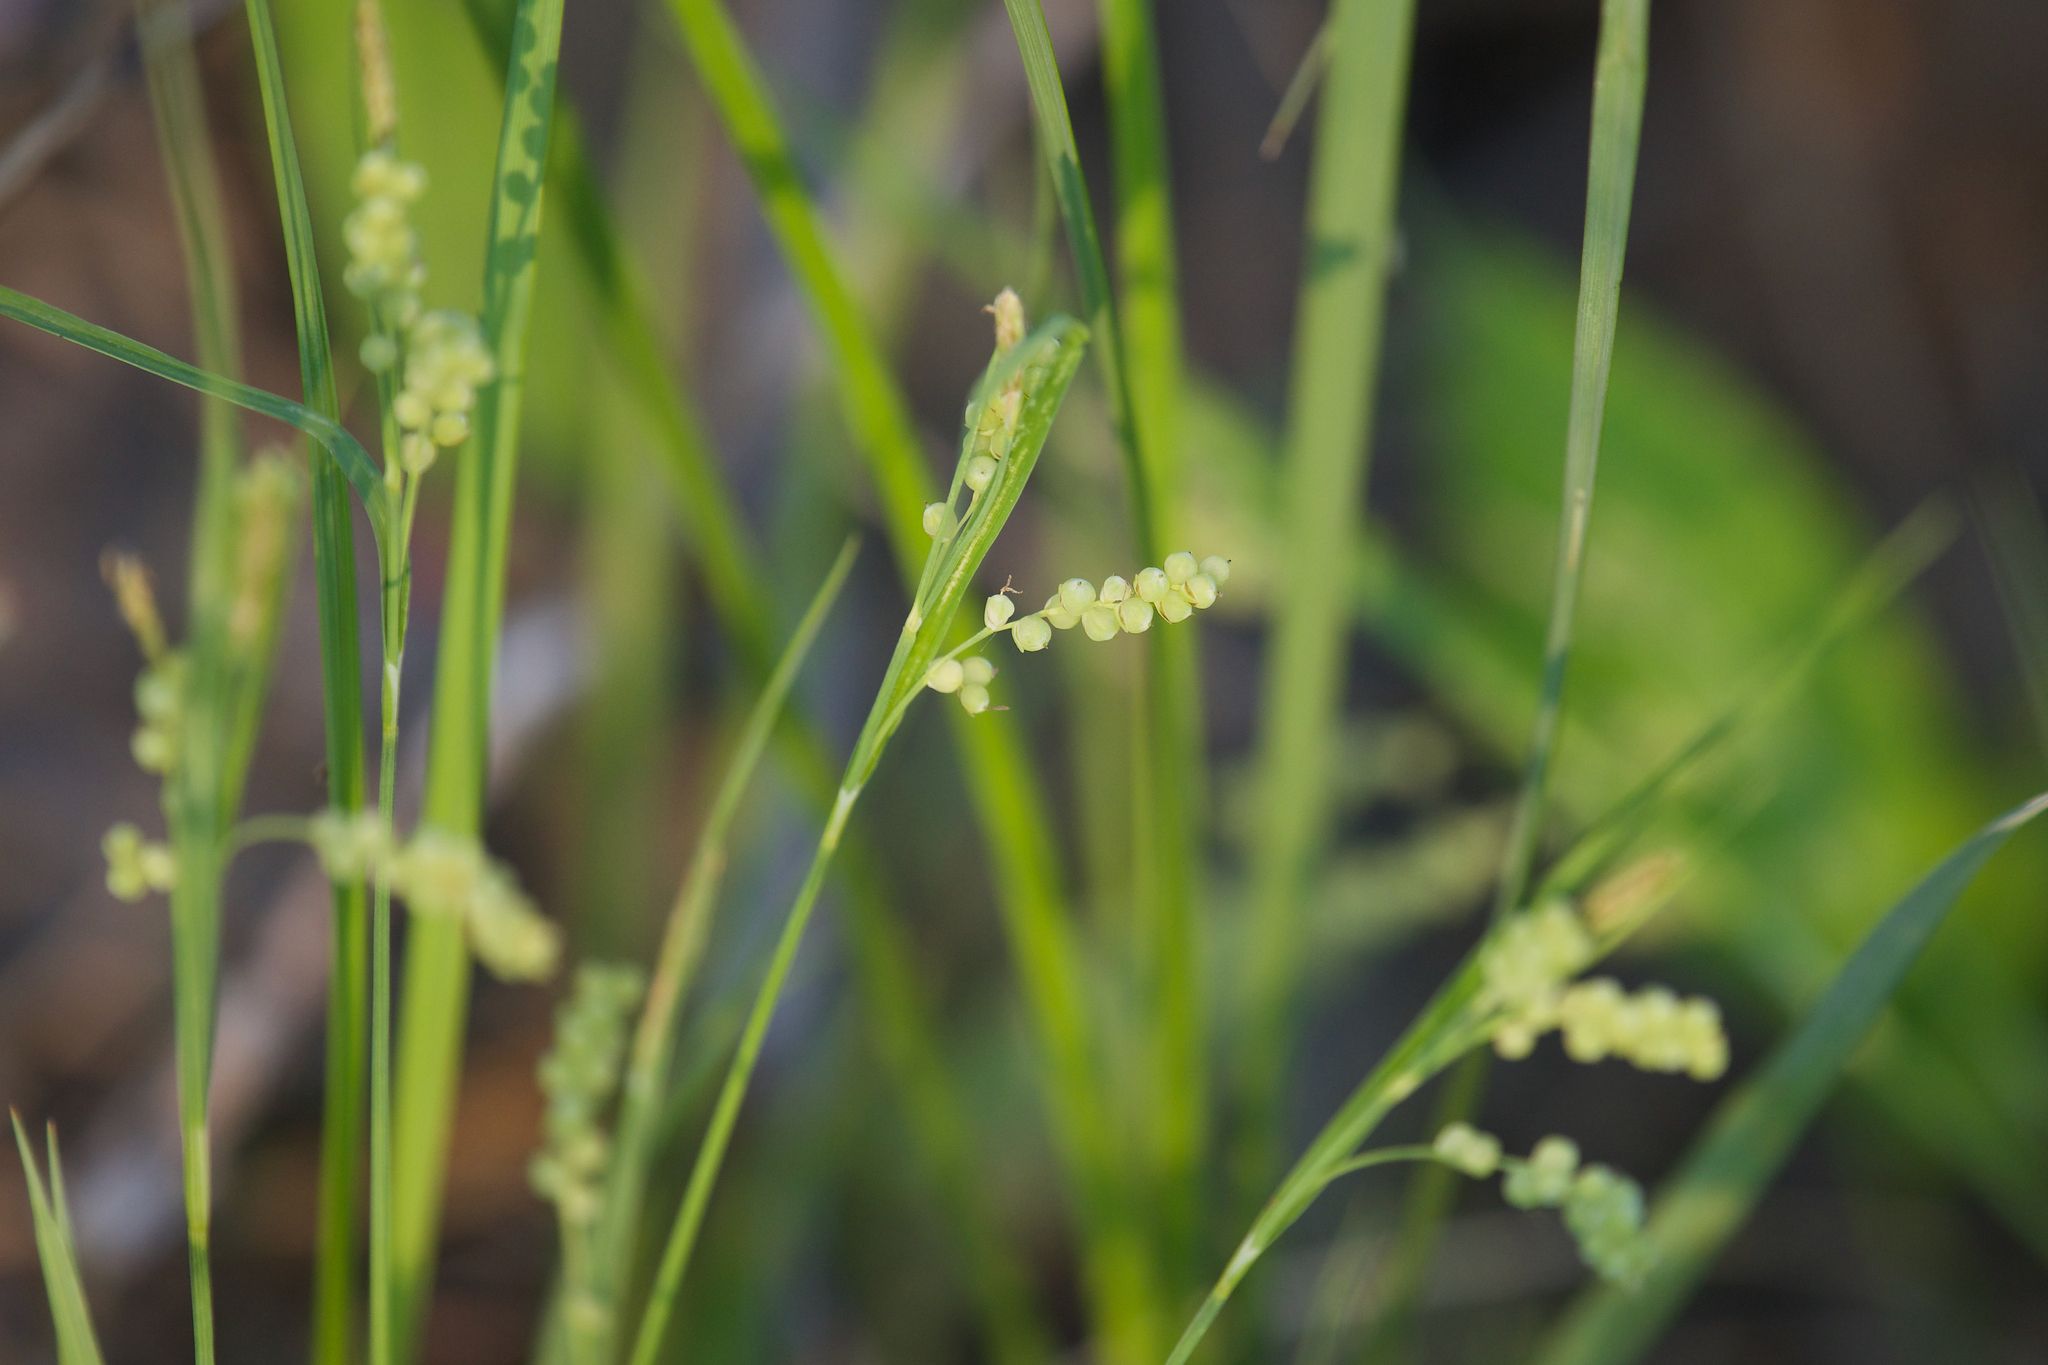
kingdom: Plantae
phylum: Tracheophyta
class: Liliopsida
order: Poales
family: Cyperaceae
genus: Carex
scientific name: Carex aurea
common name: Golden sedge
